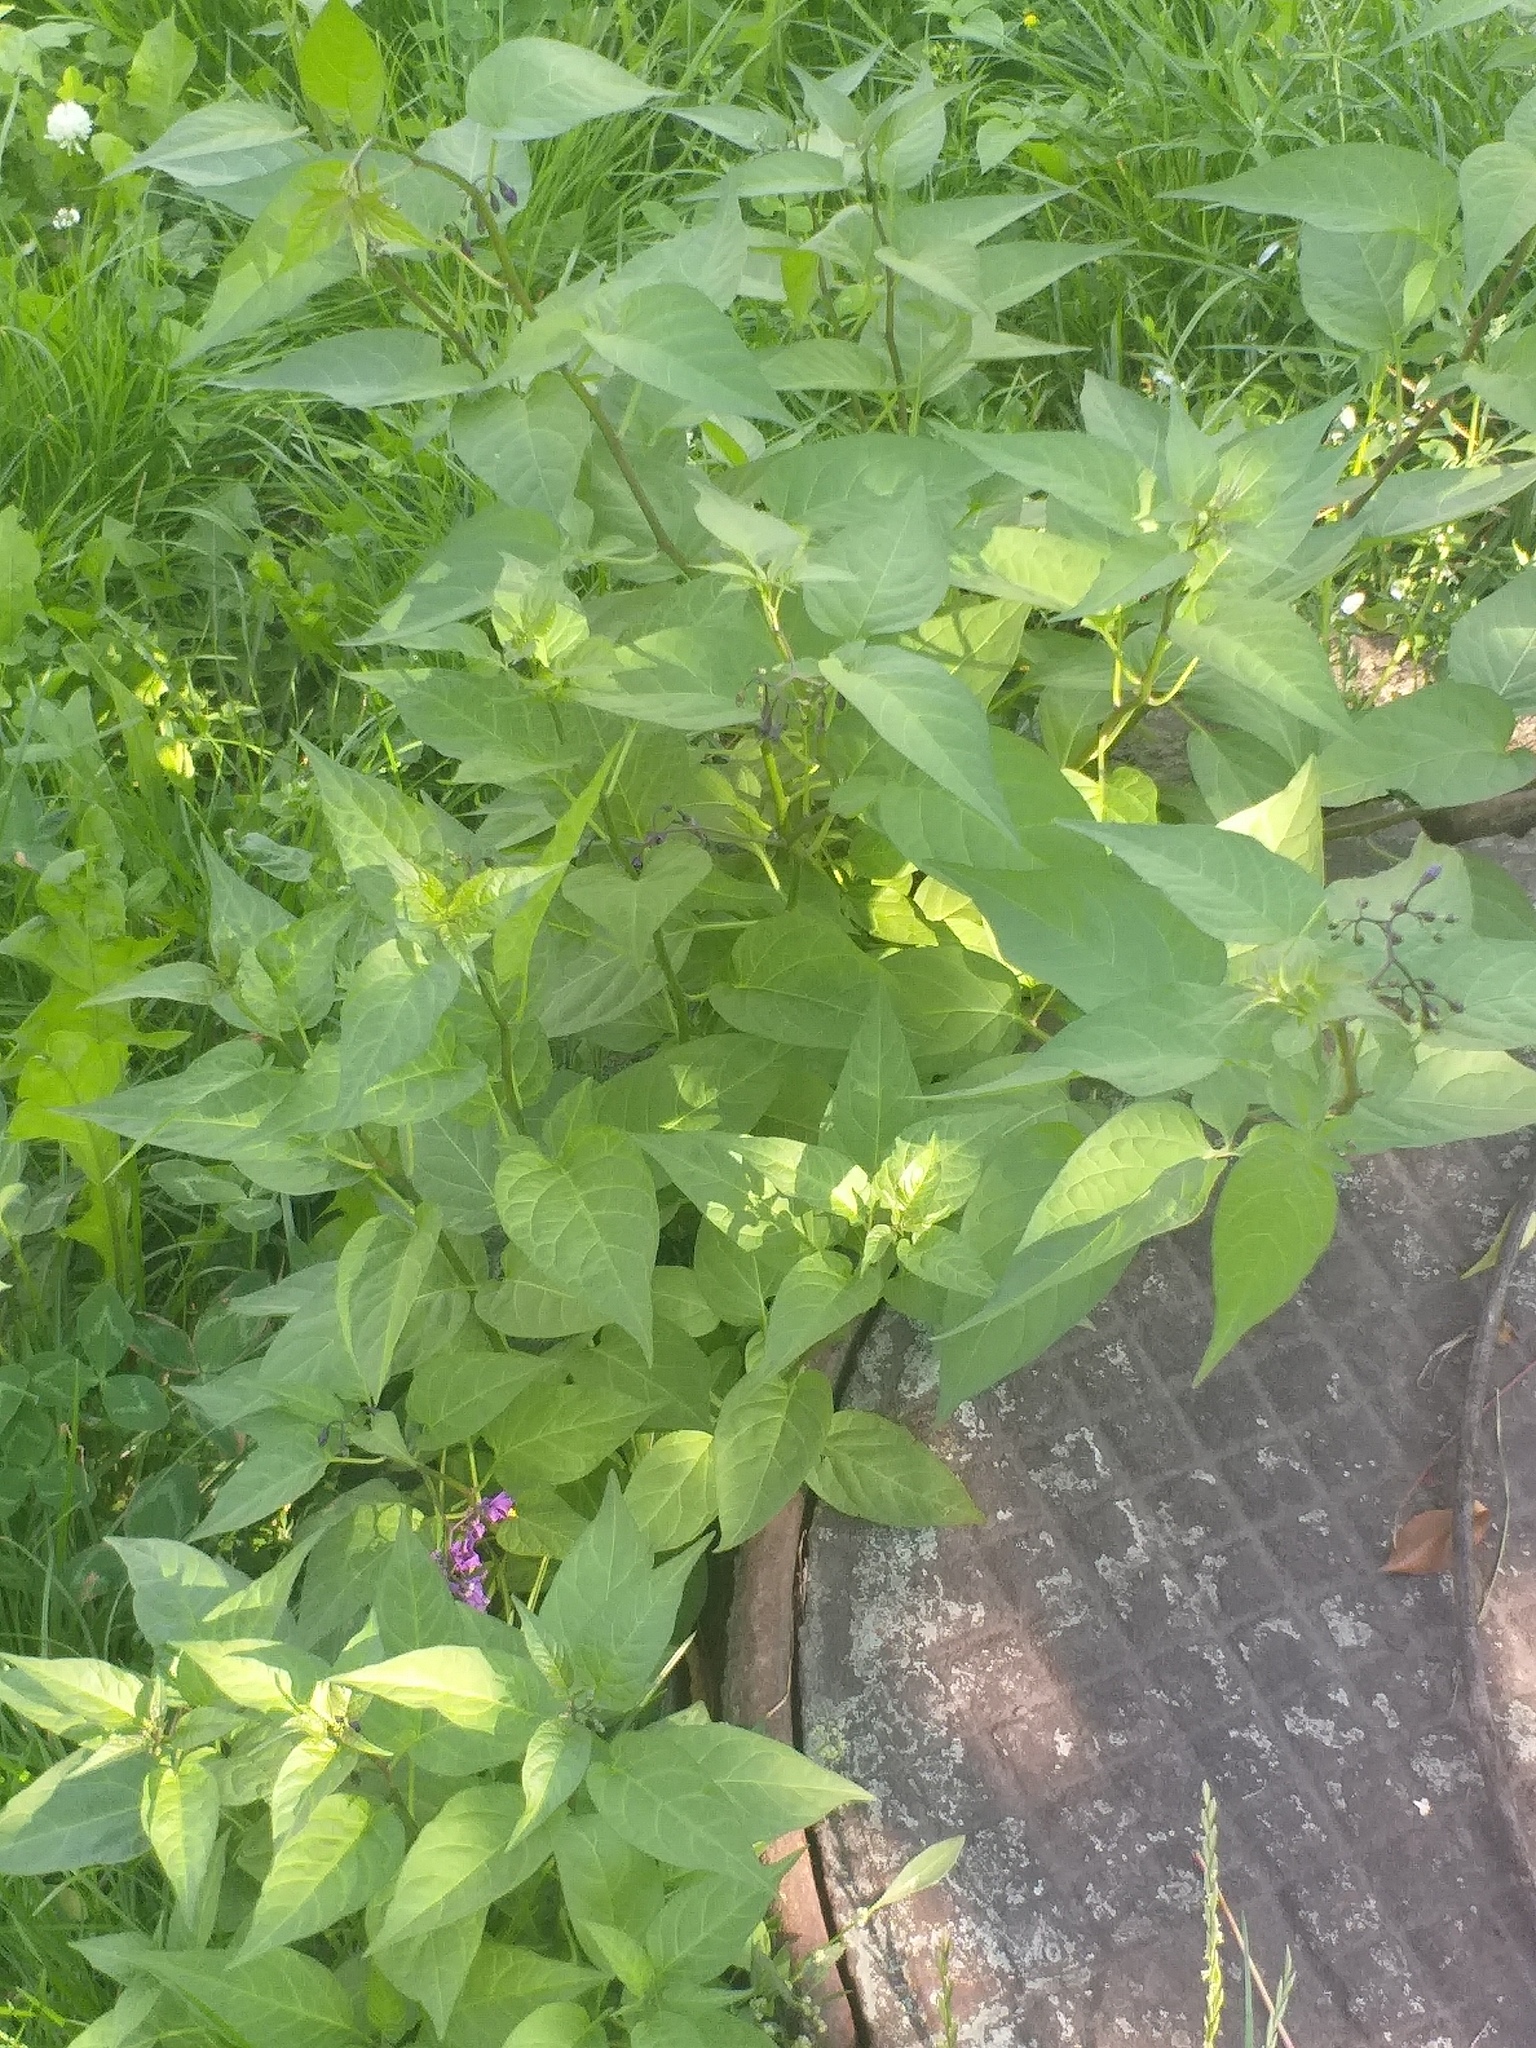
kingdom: Plantae
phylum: Tracheophyta
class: Magnoliopsida
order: Solanales
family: Solanaceae
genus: Solanum
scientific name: Solanum dulcamara
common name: Climbing nightshade
